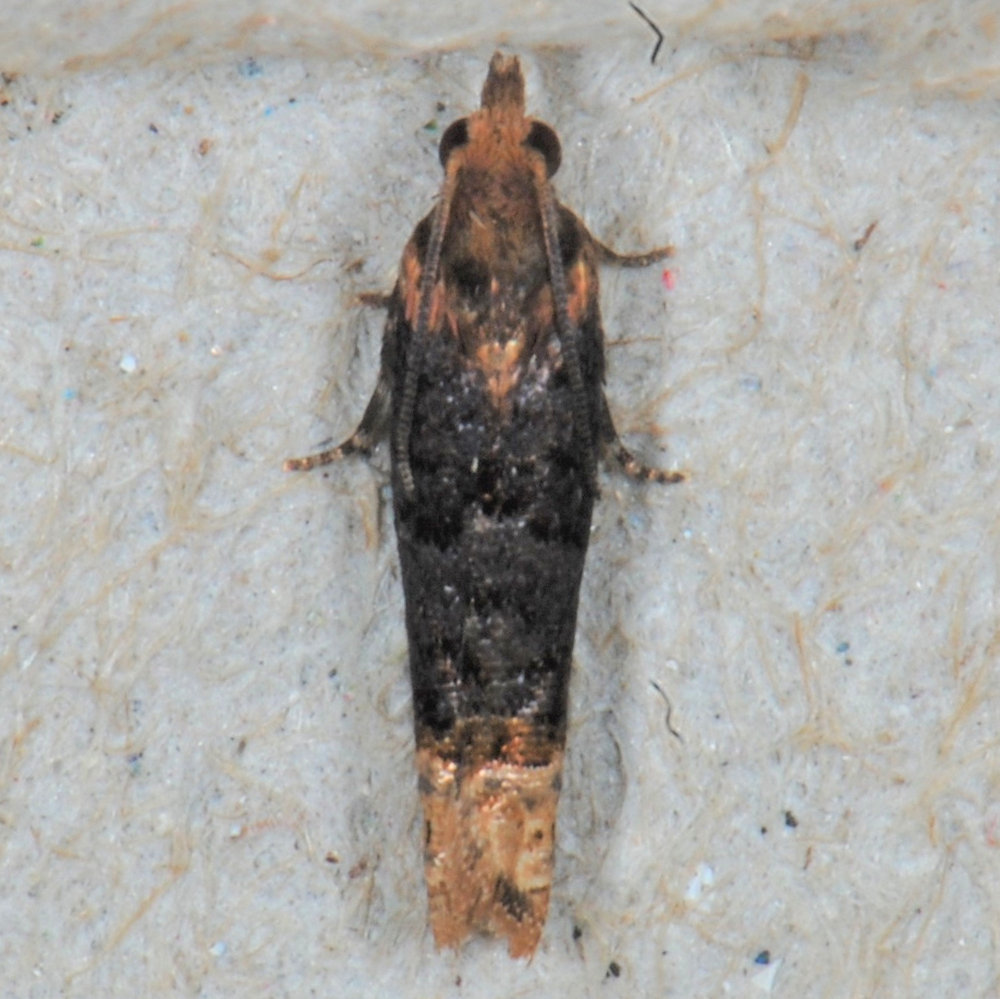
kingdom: Animalia
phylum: Arthropoda
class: Insecta
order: Lepidoptera
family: Tortricidae
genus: Eucosma
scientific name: Eucosma ochroterminana
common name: Buff-tipped eucosma moth
